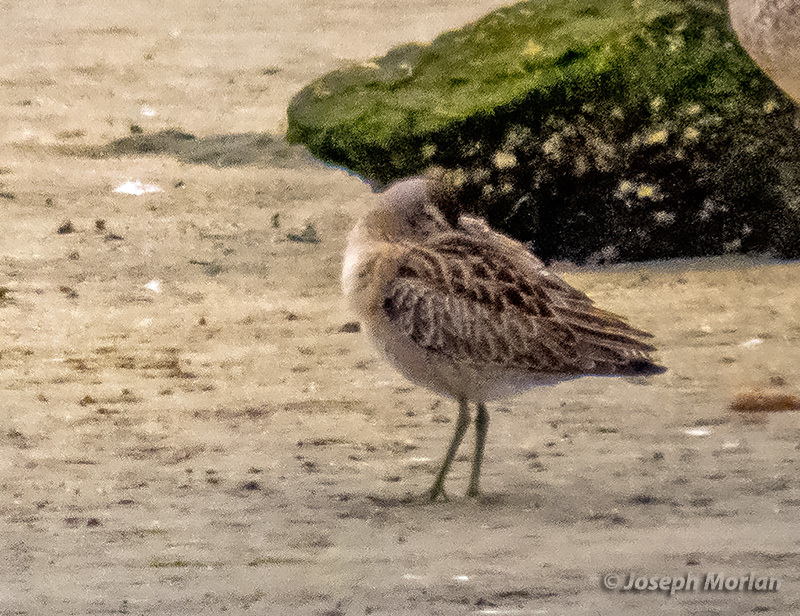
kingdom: Animalia
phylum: Chordata
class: Aves
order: Charadriiformes
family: Scolopacidae
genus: Limnodromus
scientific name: Limnodromus griseus
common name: Short-billed dowitcher
